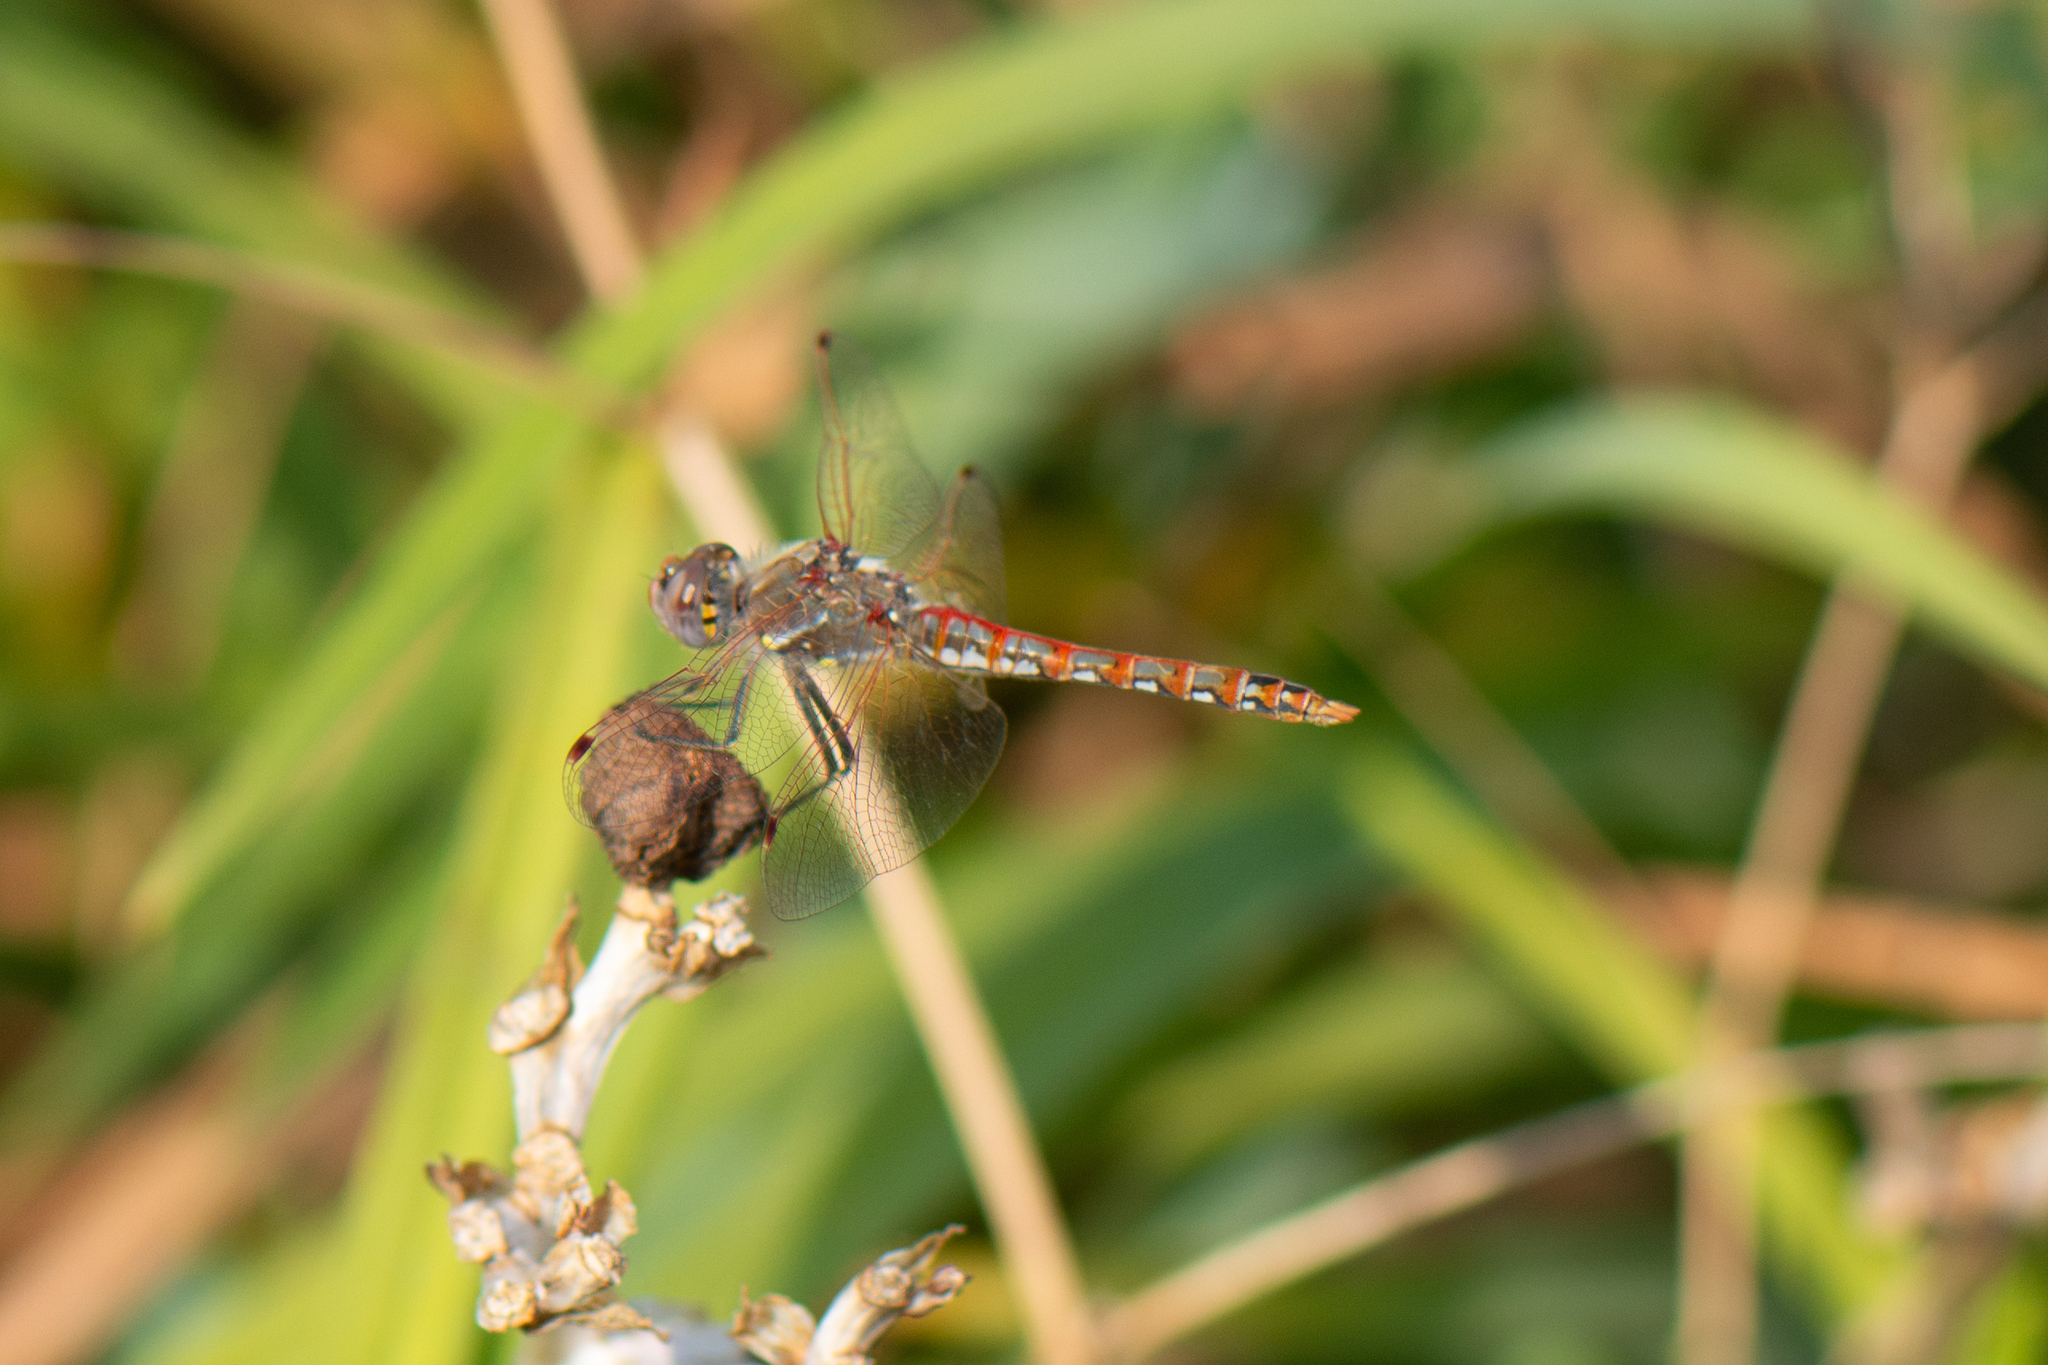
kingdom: Animalia
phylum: Arthropoda
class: Insecta
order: Odonata
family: Libellulidae
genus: Sympetrum
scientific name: Sympetrum corruptum
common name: Variegated meadowhawk
